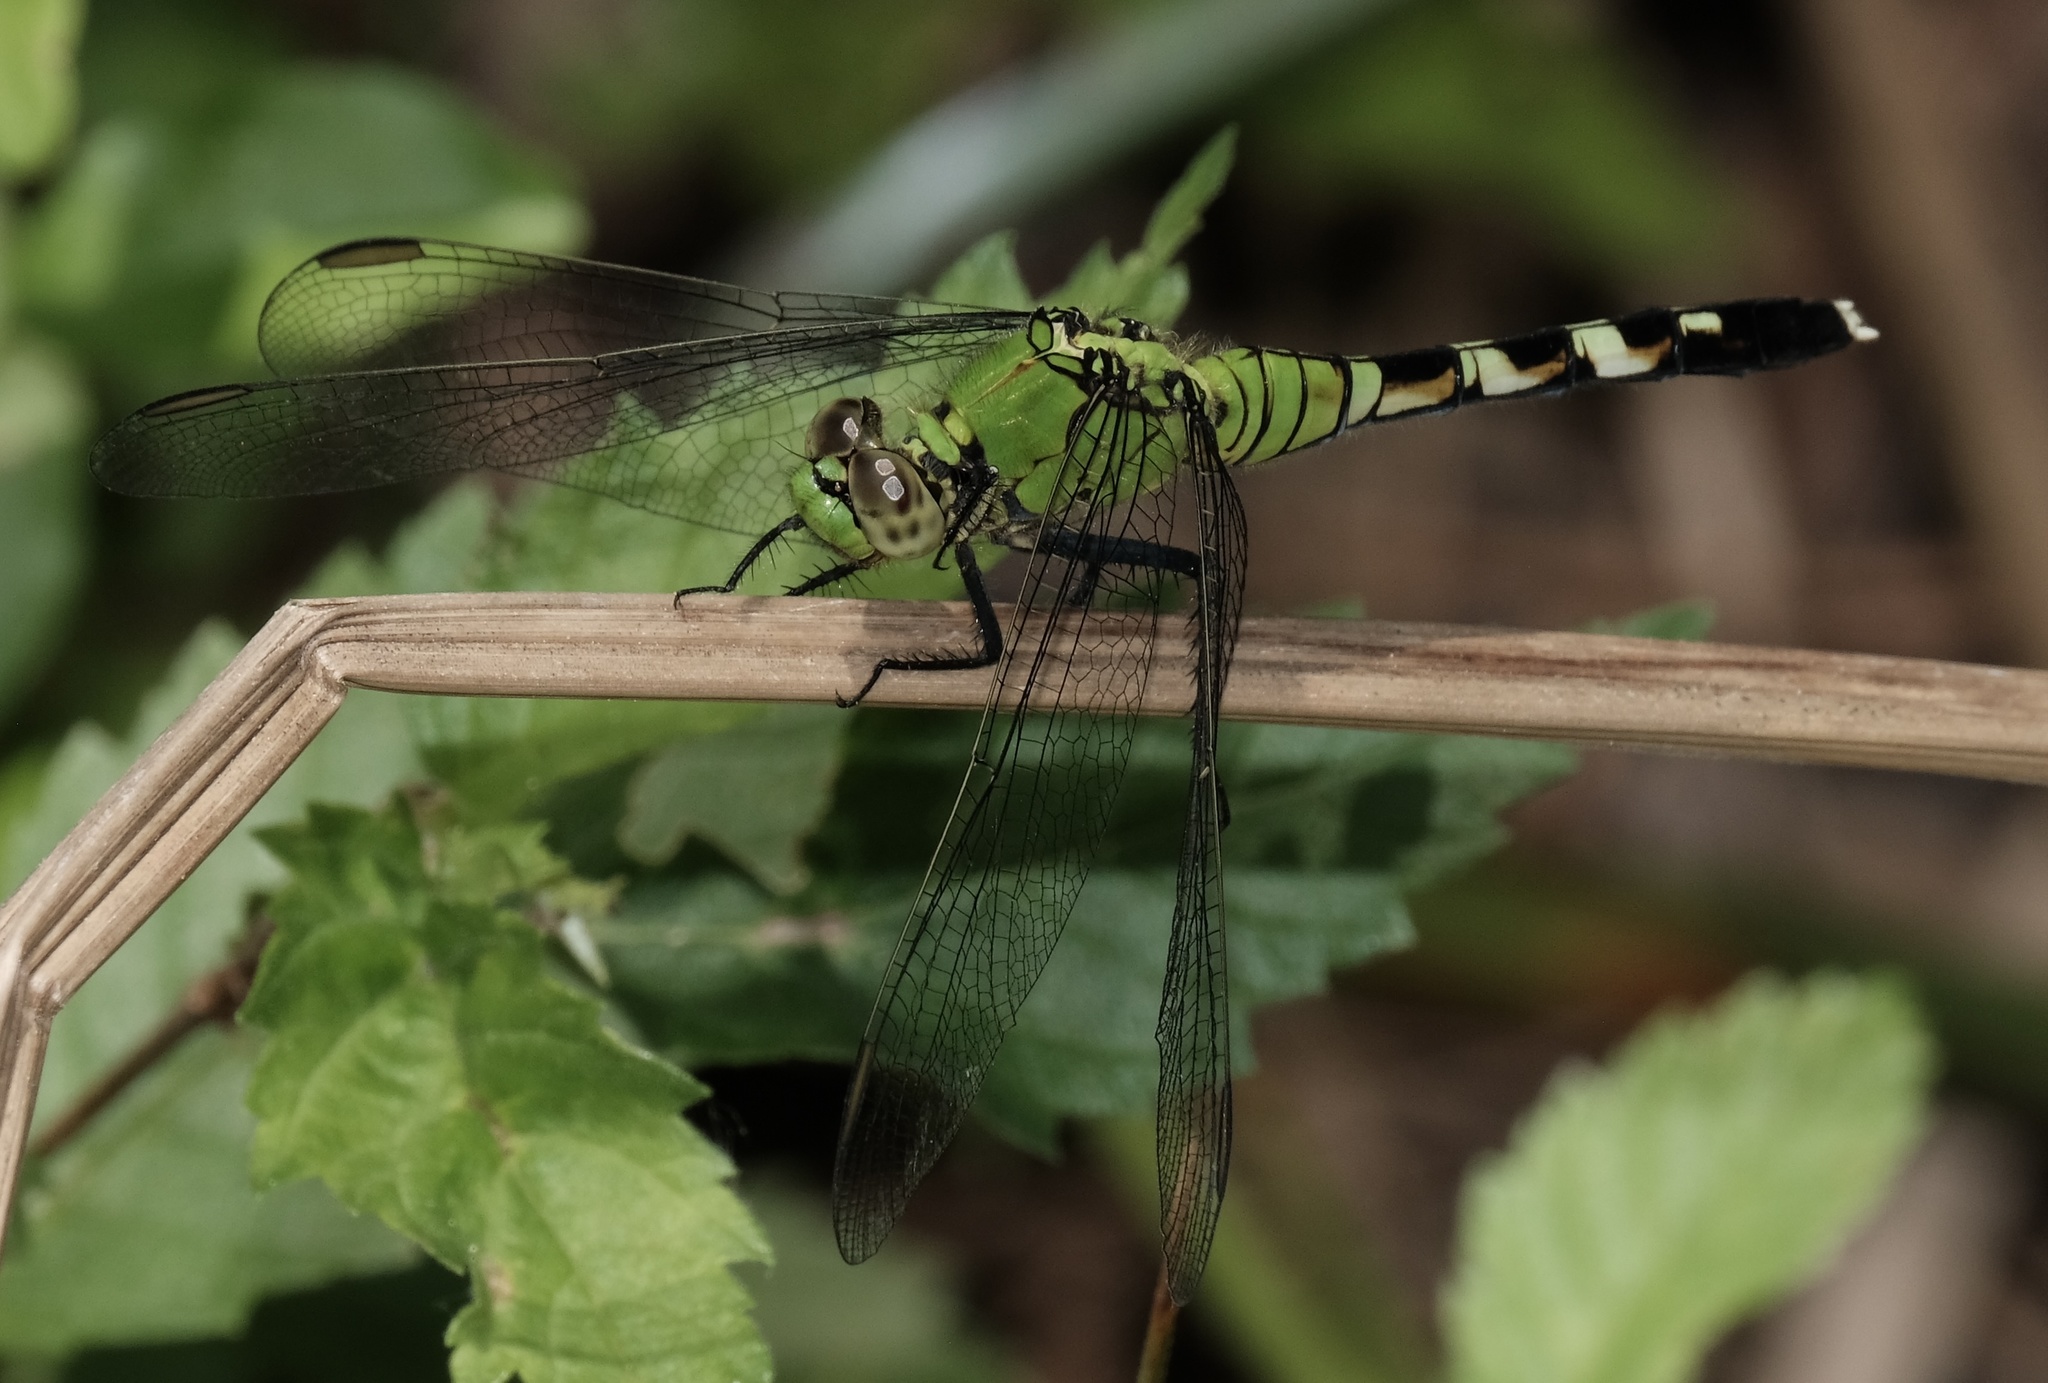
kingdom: Animalia
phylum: Arthropoda
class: Insecta
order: Odonata
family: Libellulidae
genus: Erythemis
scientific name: Erythemis simplicicollis
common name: Eastern pondhawk
